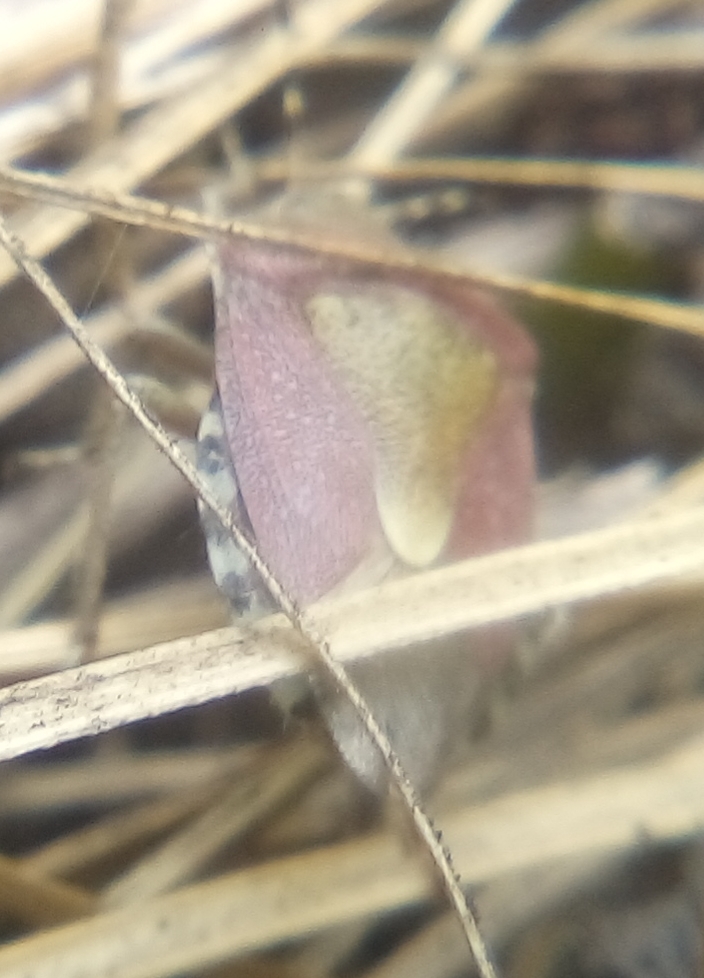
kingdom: Animalia
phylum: Arthropoda
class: Insecta
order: Hemiptera
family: Pentatomidae
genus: Dolycoris
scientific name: Dolycoris baccarum
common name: Sloe bug
